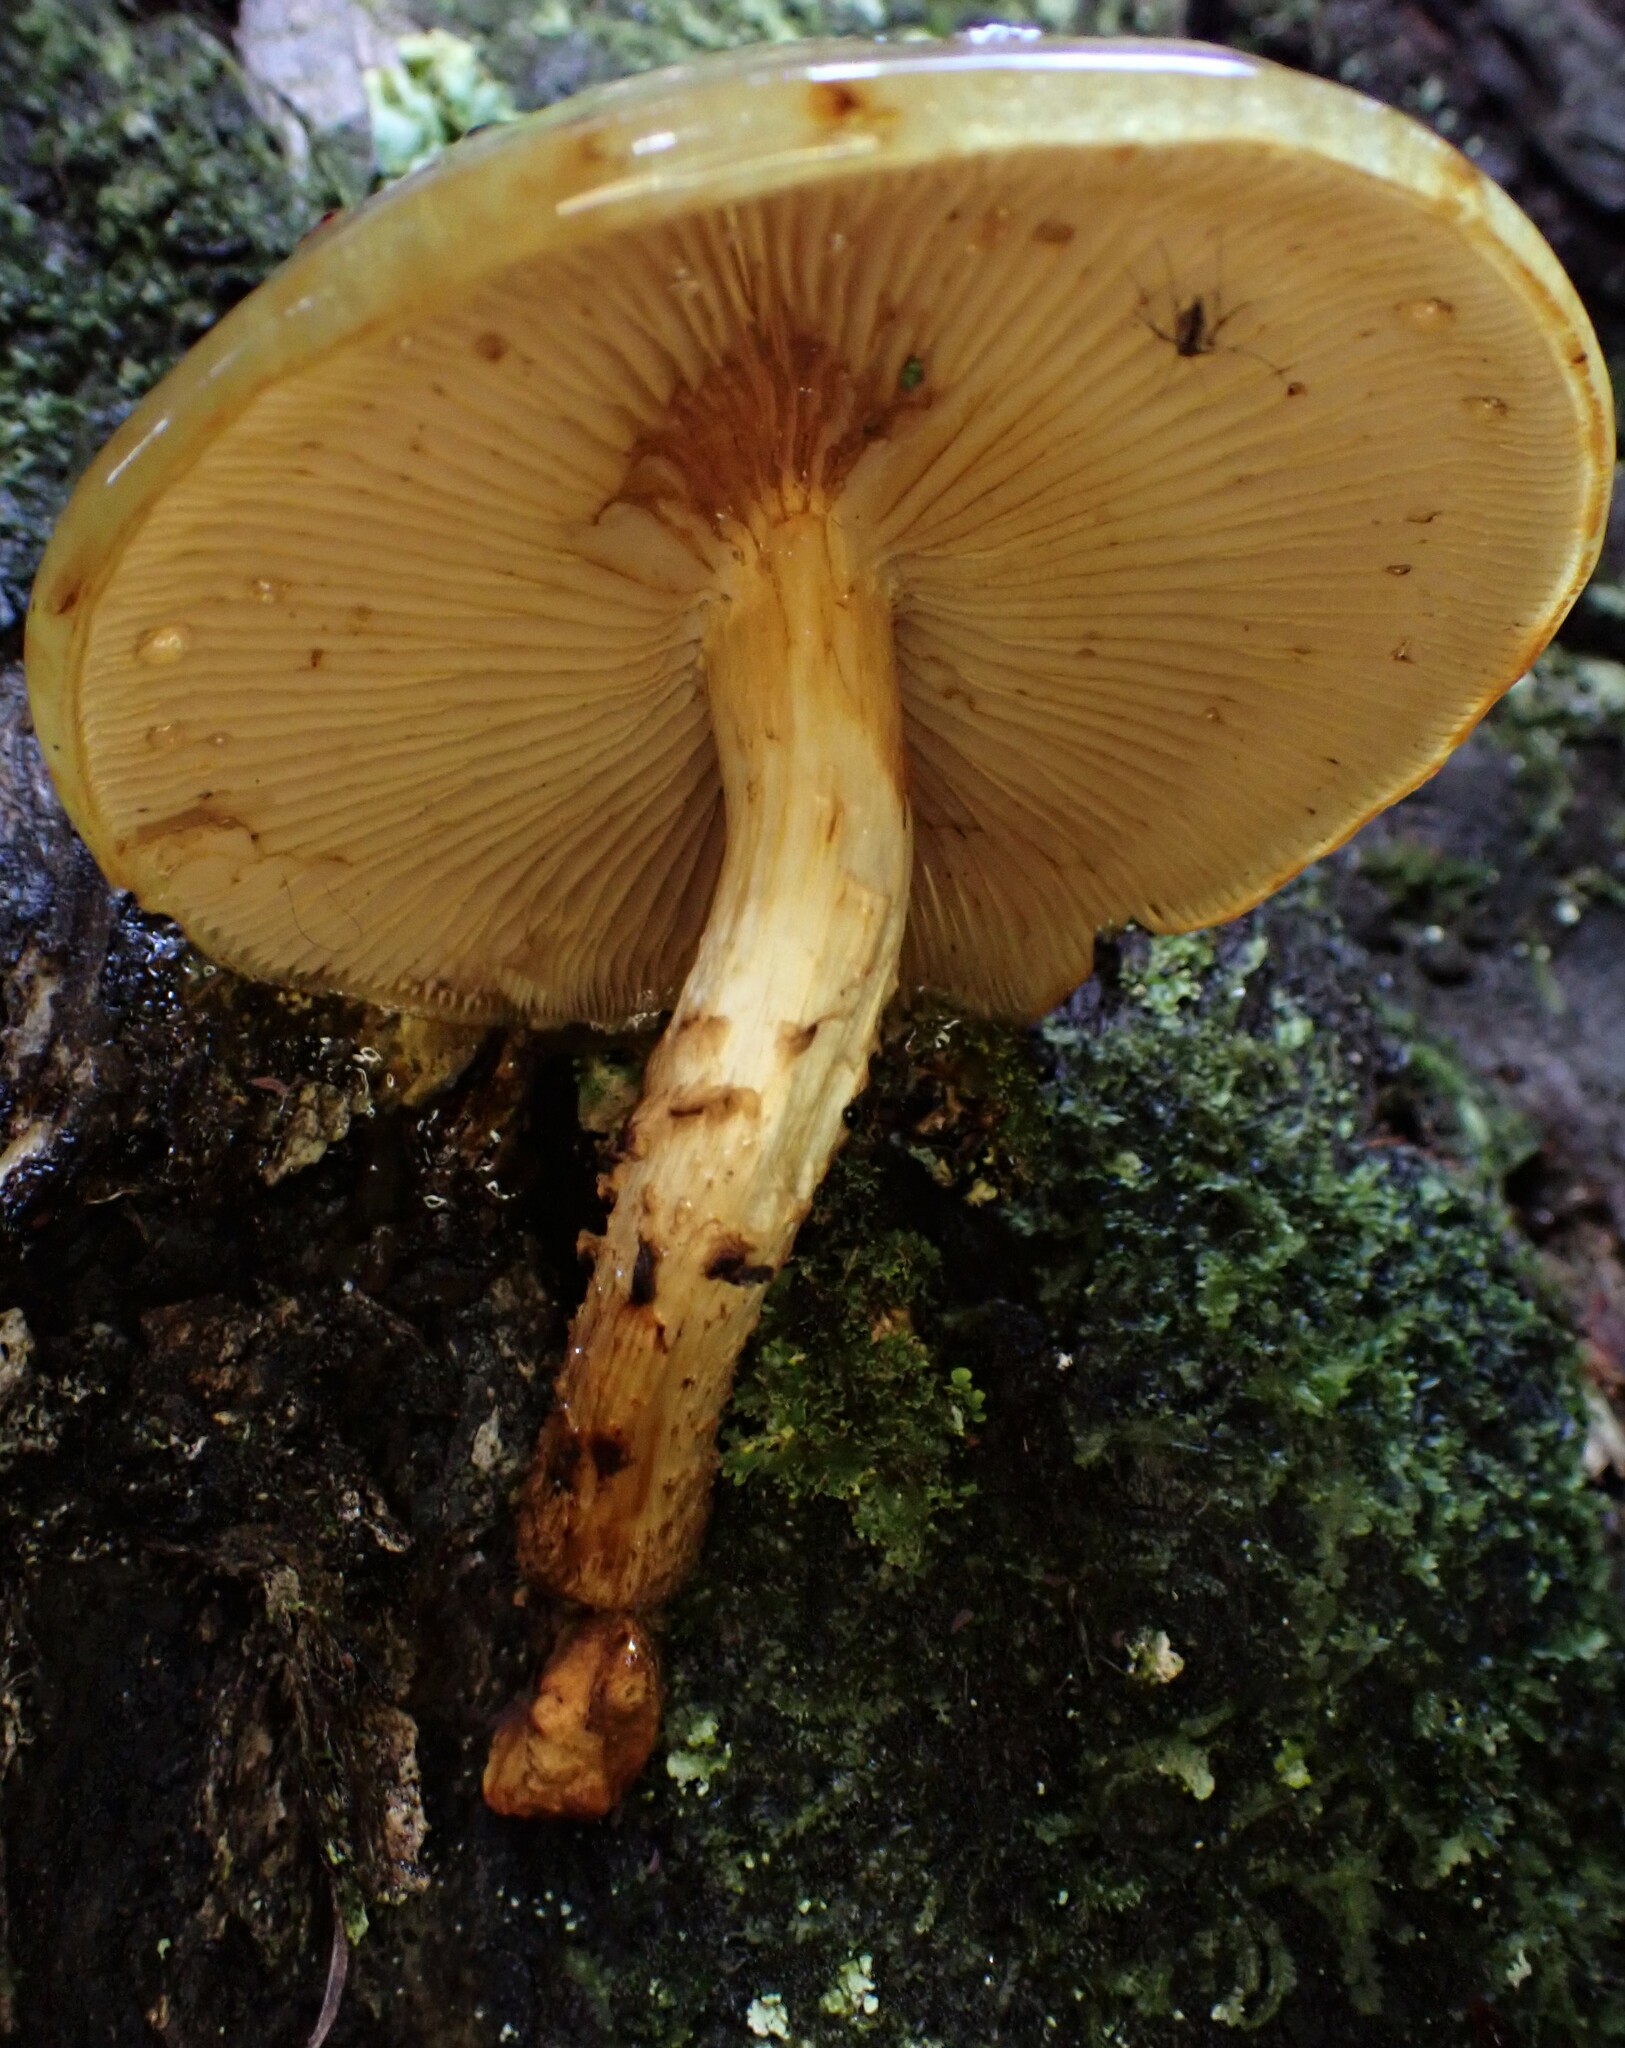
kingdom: Fungi
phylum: Basidiomycota
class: Agaricomycetes
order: Agaricales
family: Strophariaceae
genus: Pholiota
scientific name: Pholiota glutinosa
